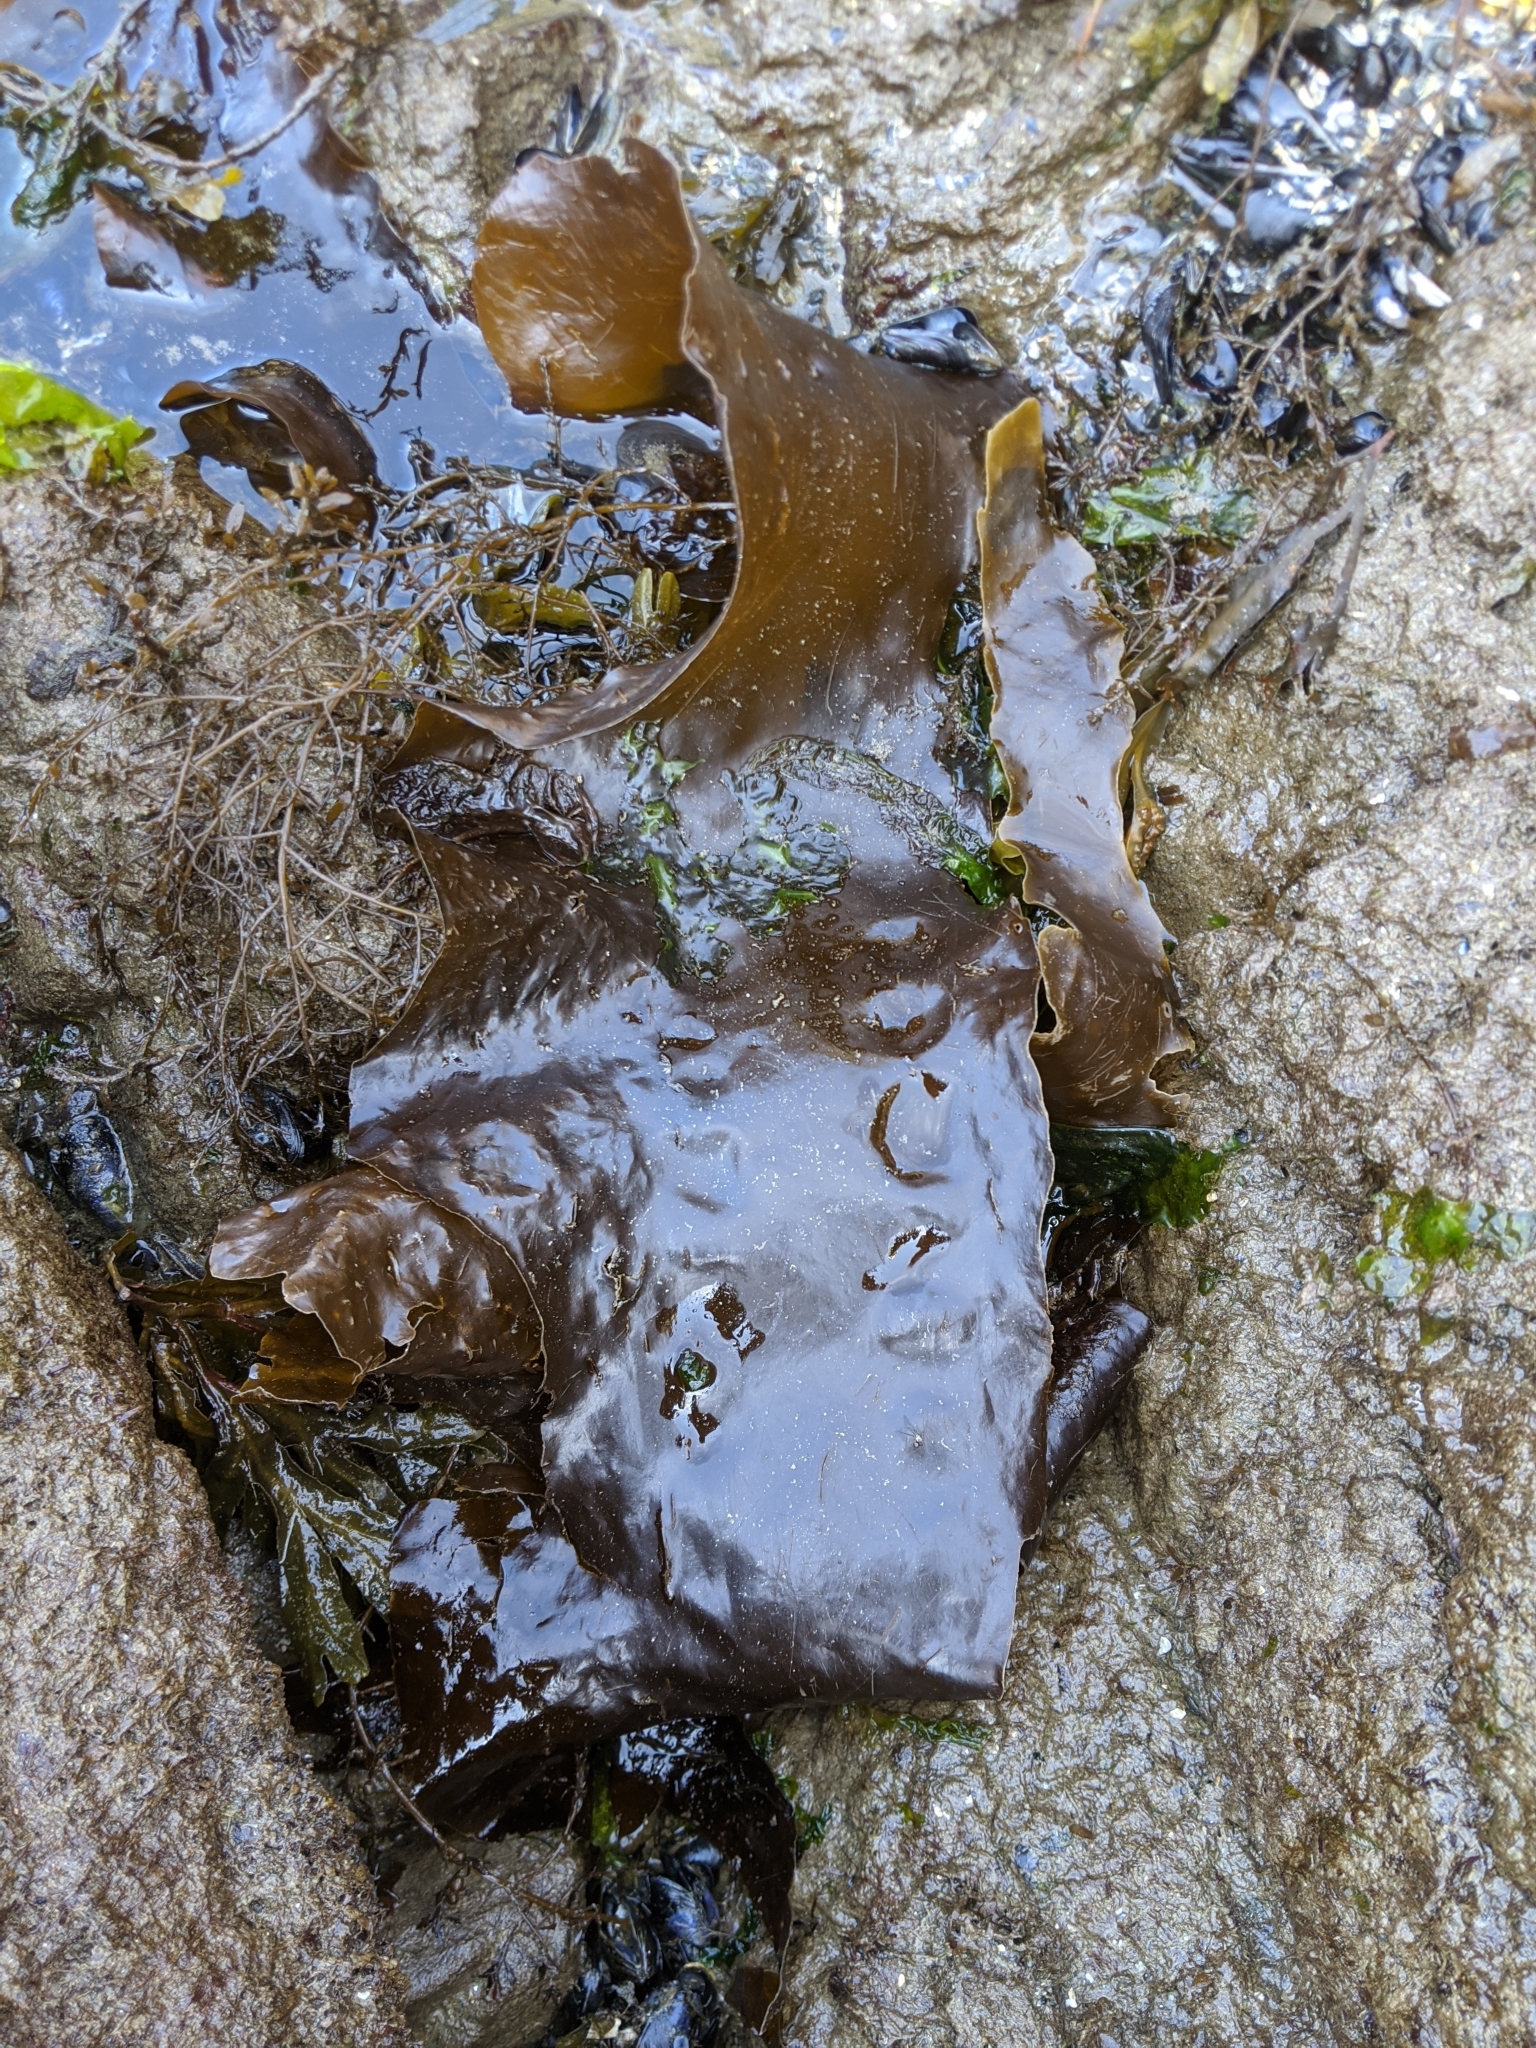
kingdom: Chromista
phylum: Ochrophyta
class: Phaeophyceae
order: Laminariales
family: Laminariaceae
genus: Saccharina
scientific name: Saccharina latissima
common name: Poor man's weather glass
